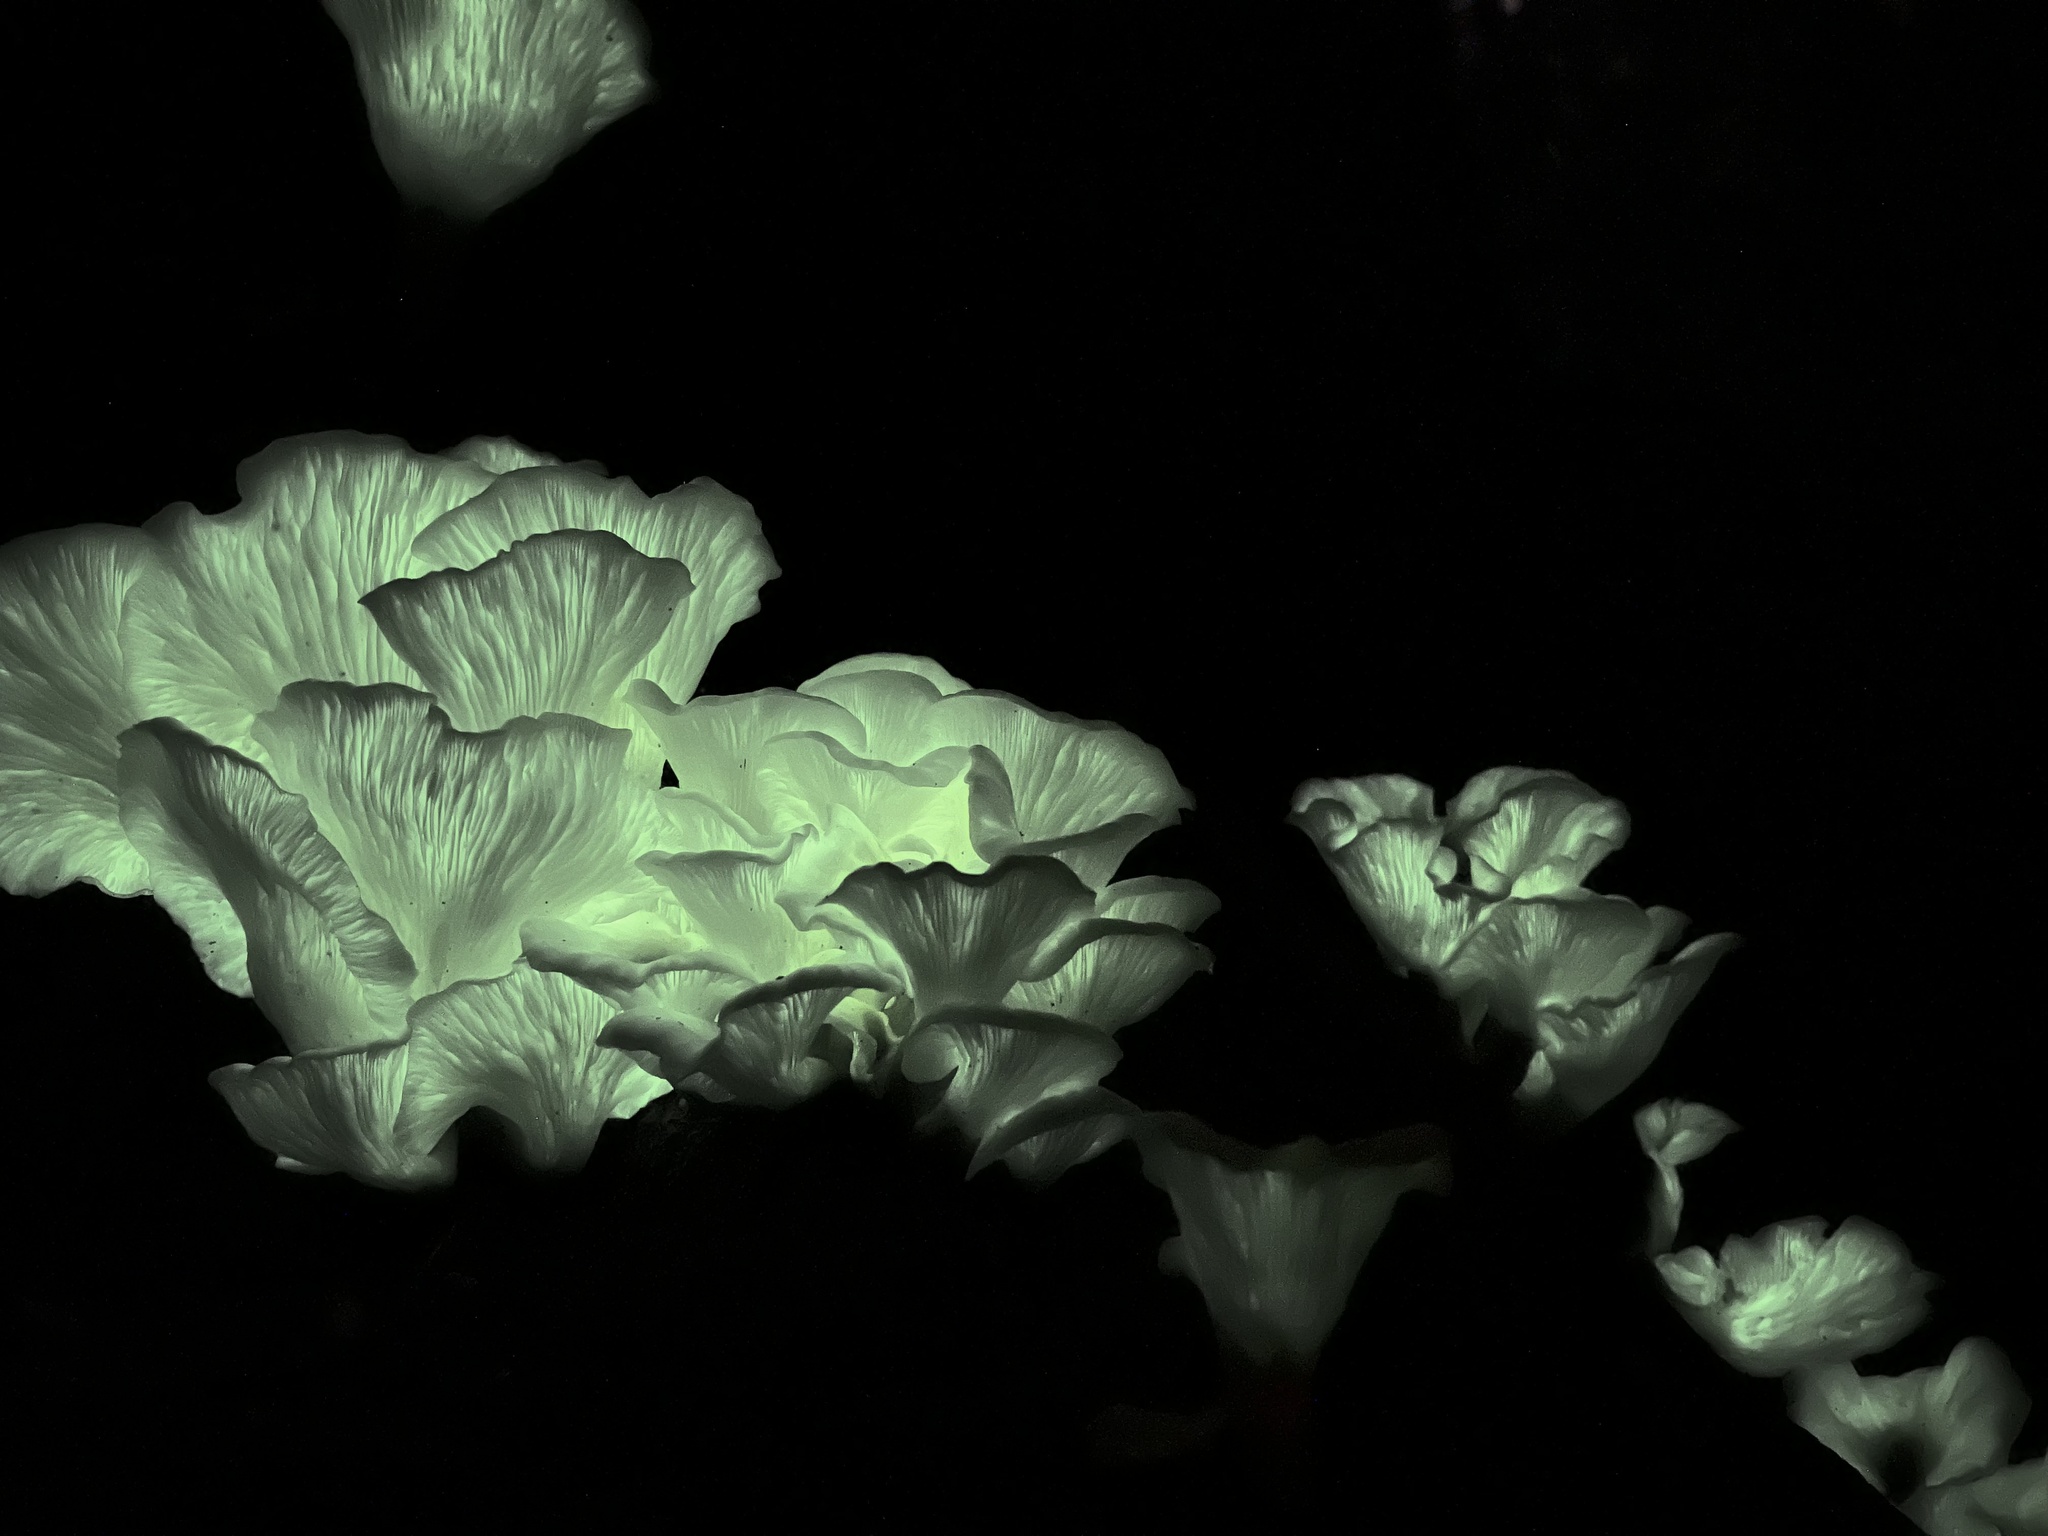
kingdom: Fungi
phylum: Basidiomycota
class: Agaricomycetes
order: Agaricales
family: Omphalotaceae
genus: Omphalotus
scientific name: Omphalotus nidiformis
